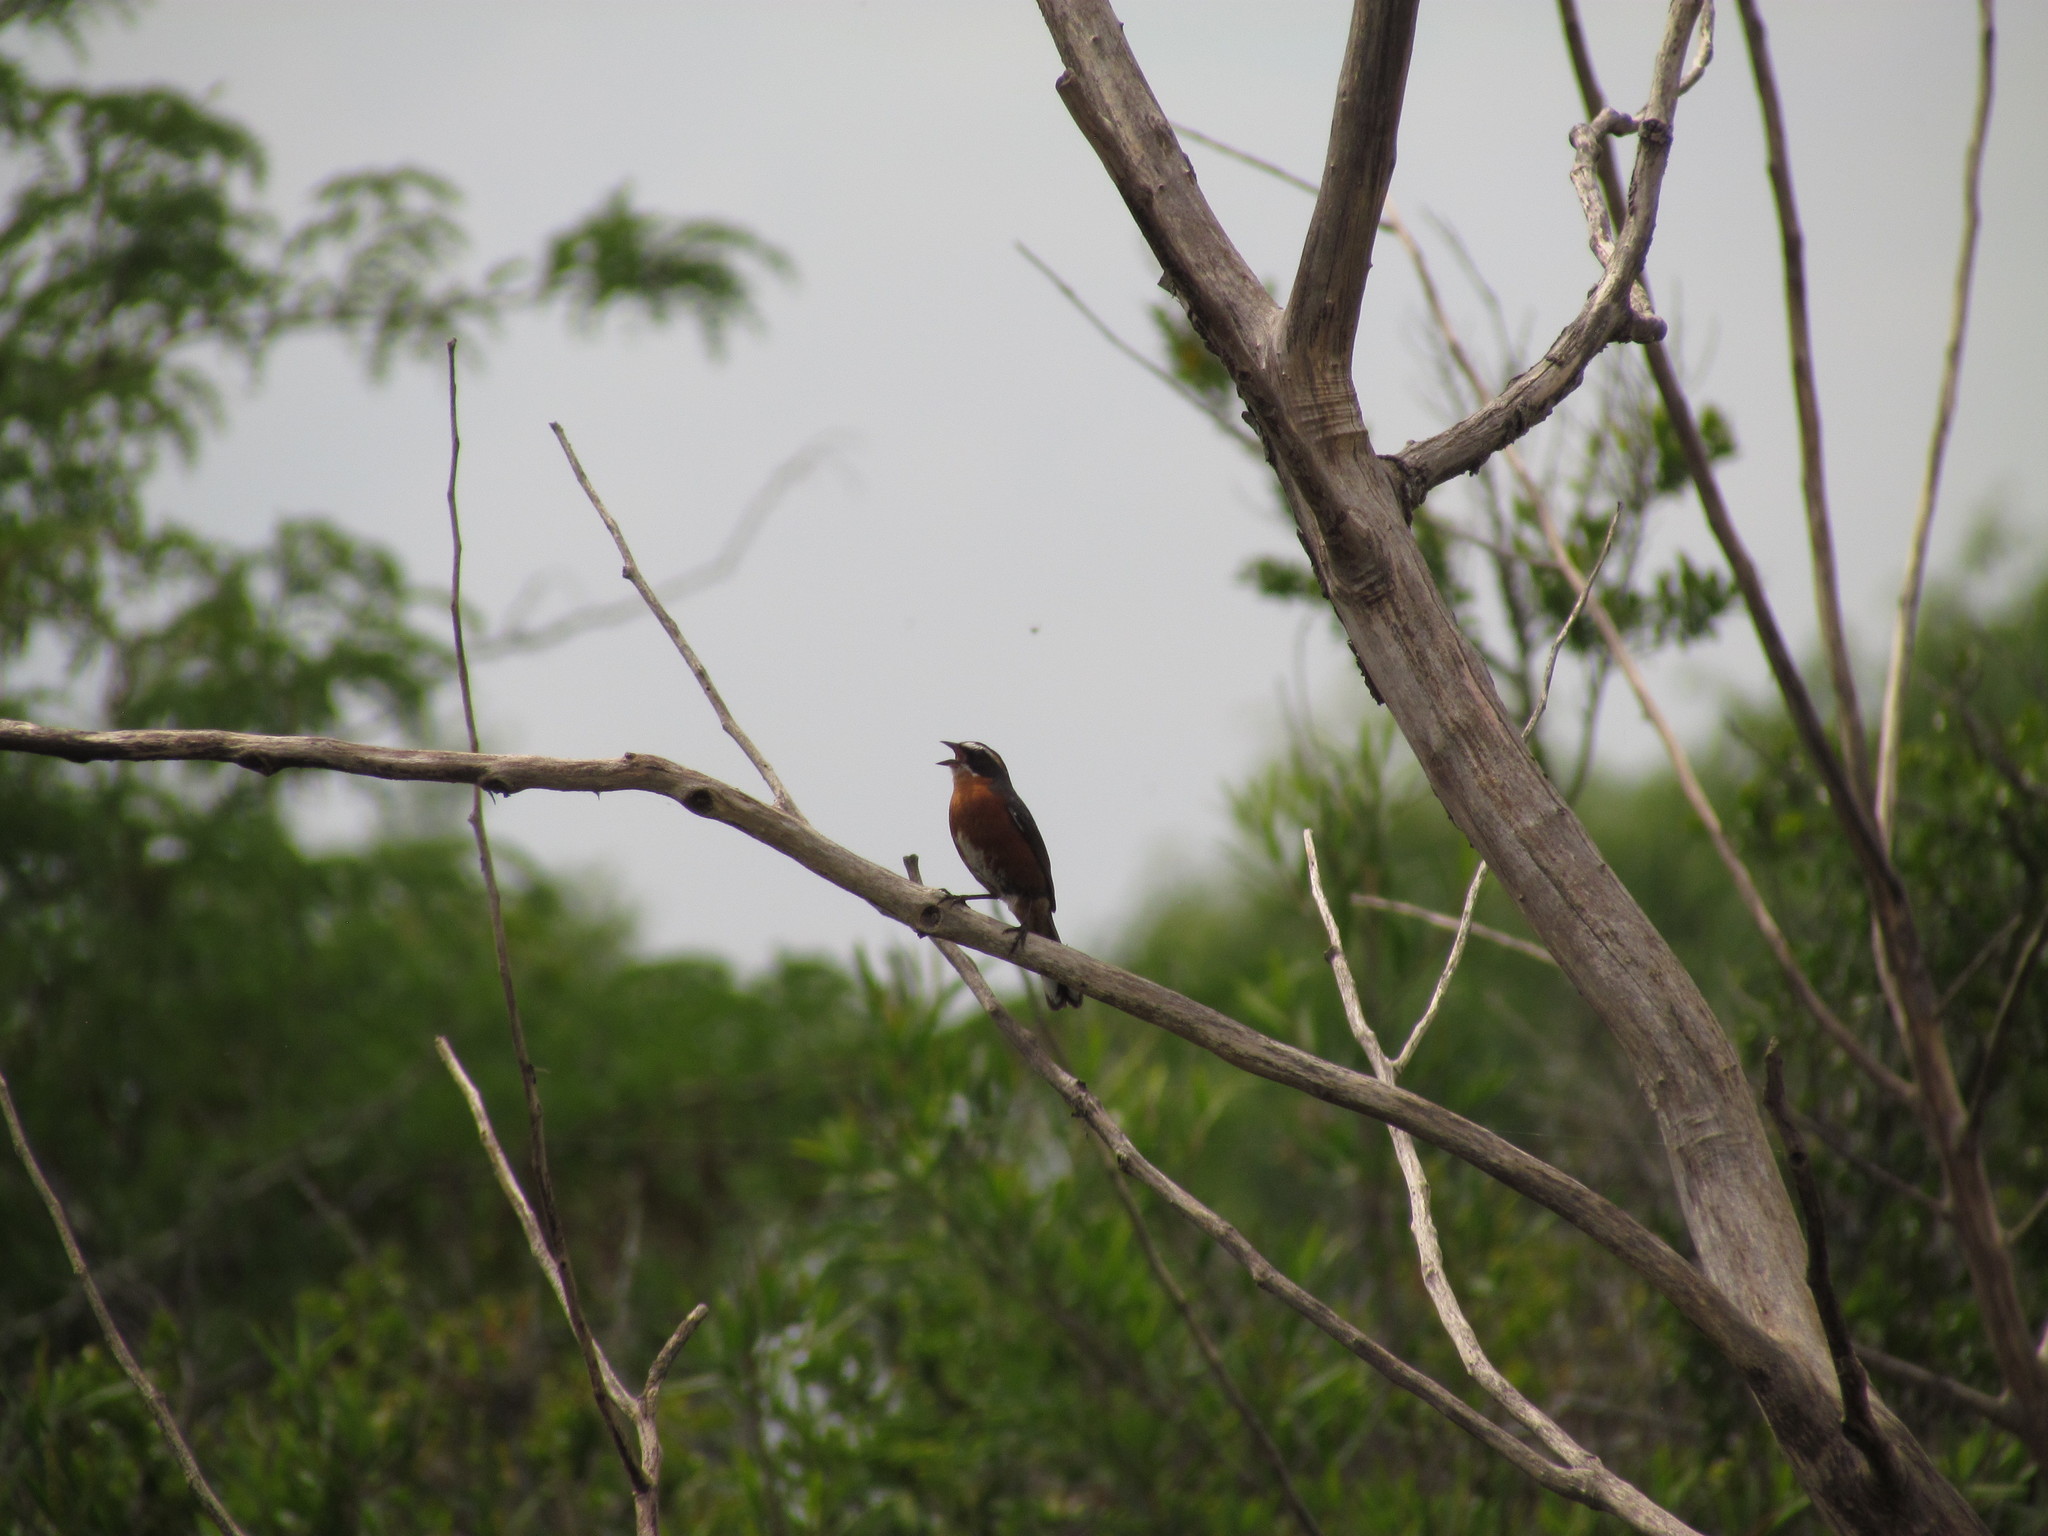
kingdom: Animalia
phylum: Chordata
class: Aves
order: Passeriformes
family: Thraupidae
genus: Poospiza
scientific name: Poospiza nigrorufa
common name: Black-and-rufous warbling finch
